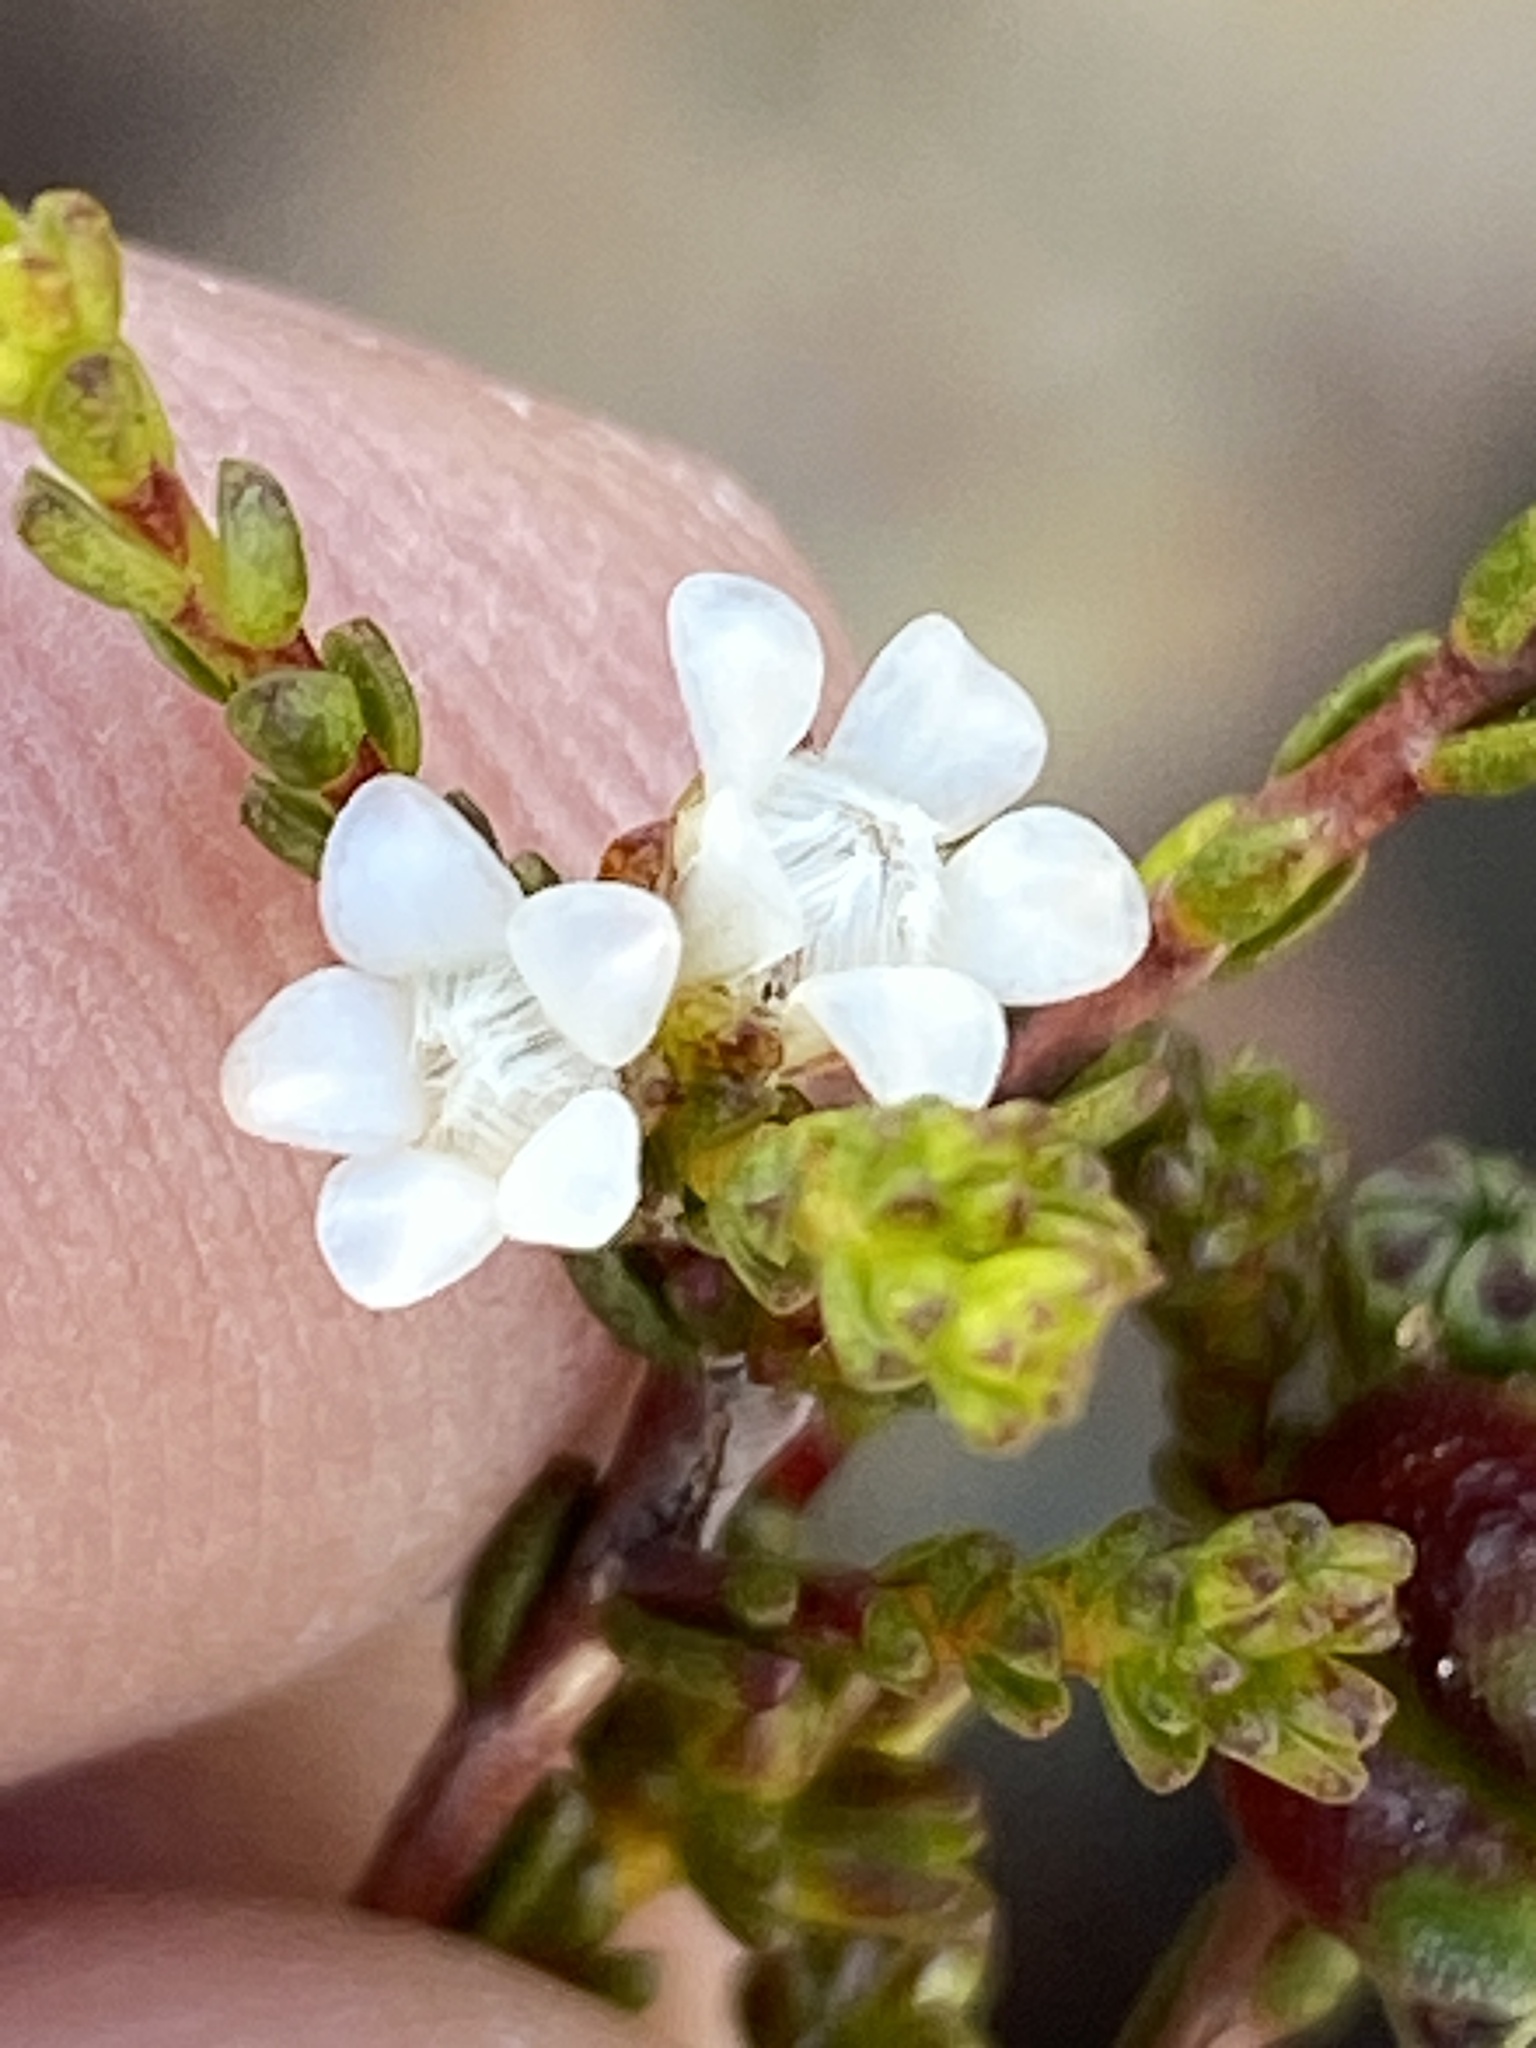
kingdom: Plantae
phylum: Tracheophyta
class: Magnoliopsida
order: Sapindales
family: Rutaceae
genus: Euchaetis
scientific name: Euchaetis elsieae
